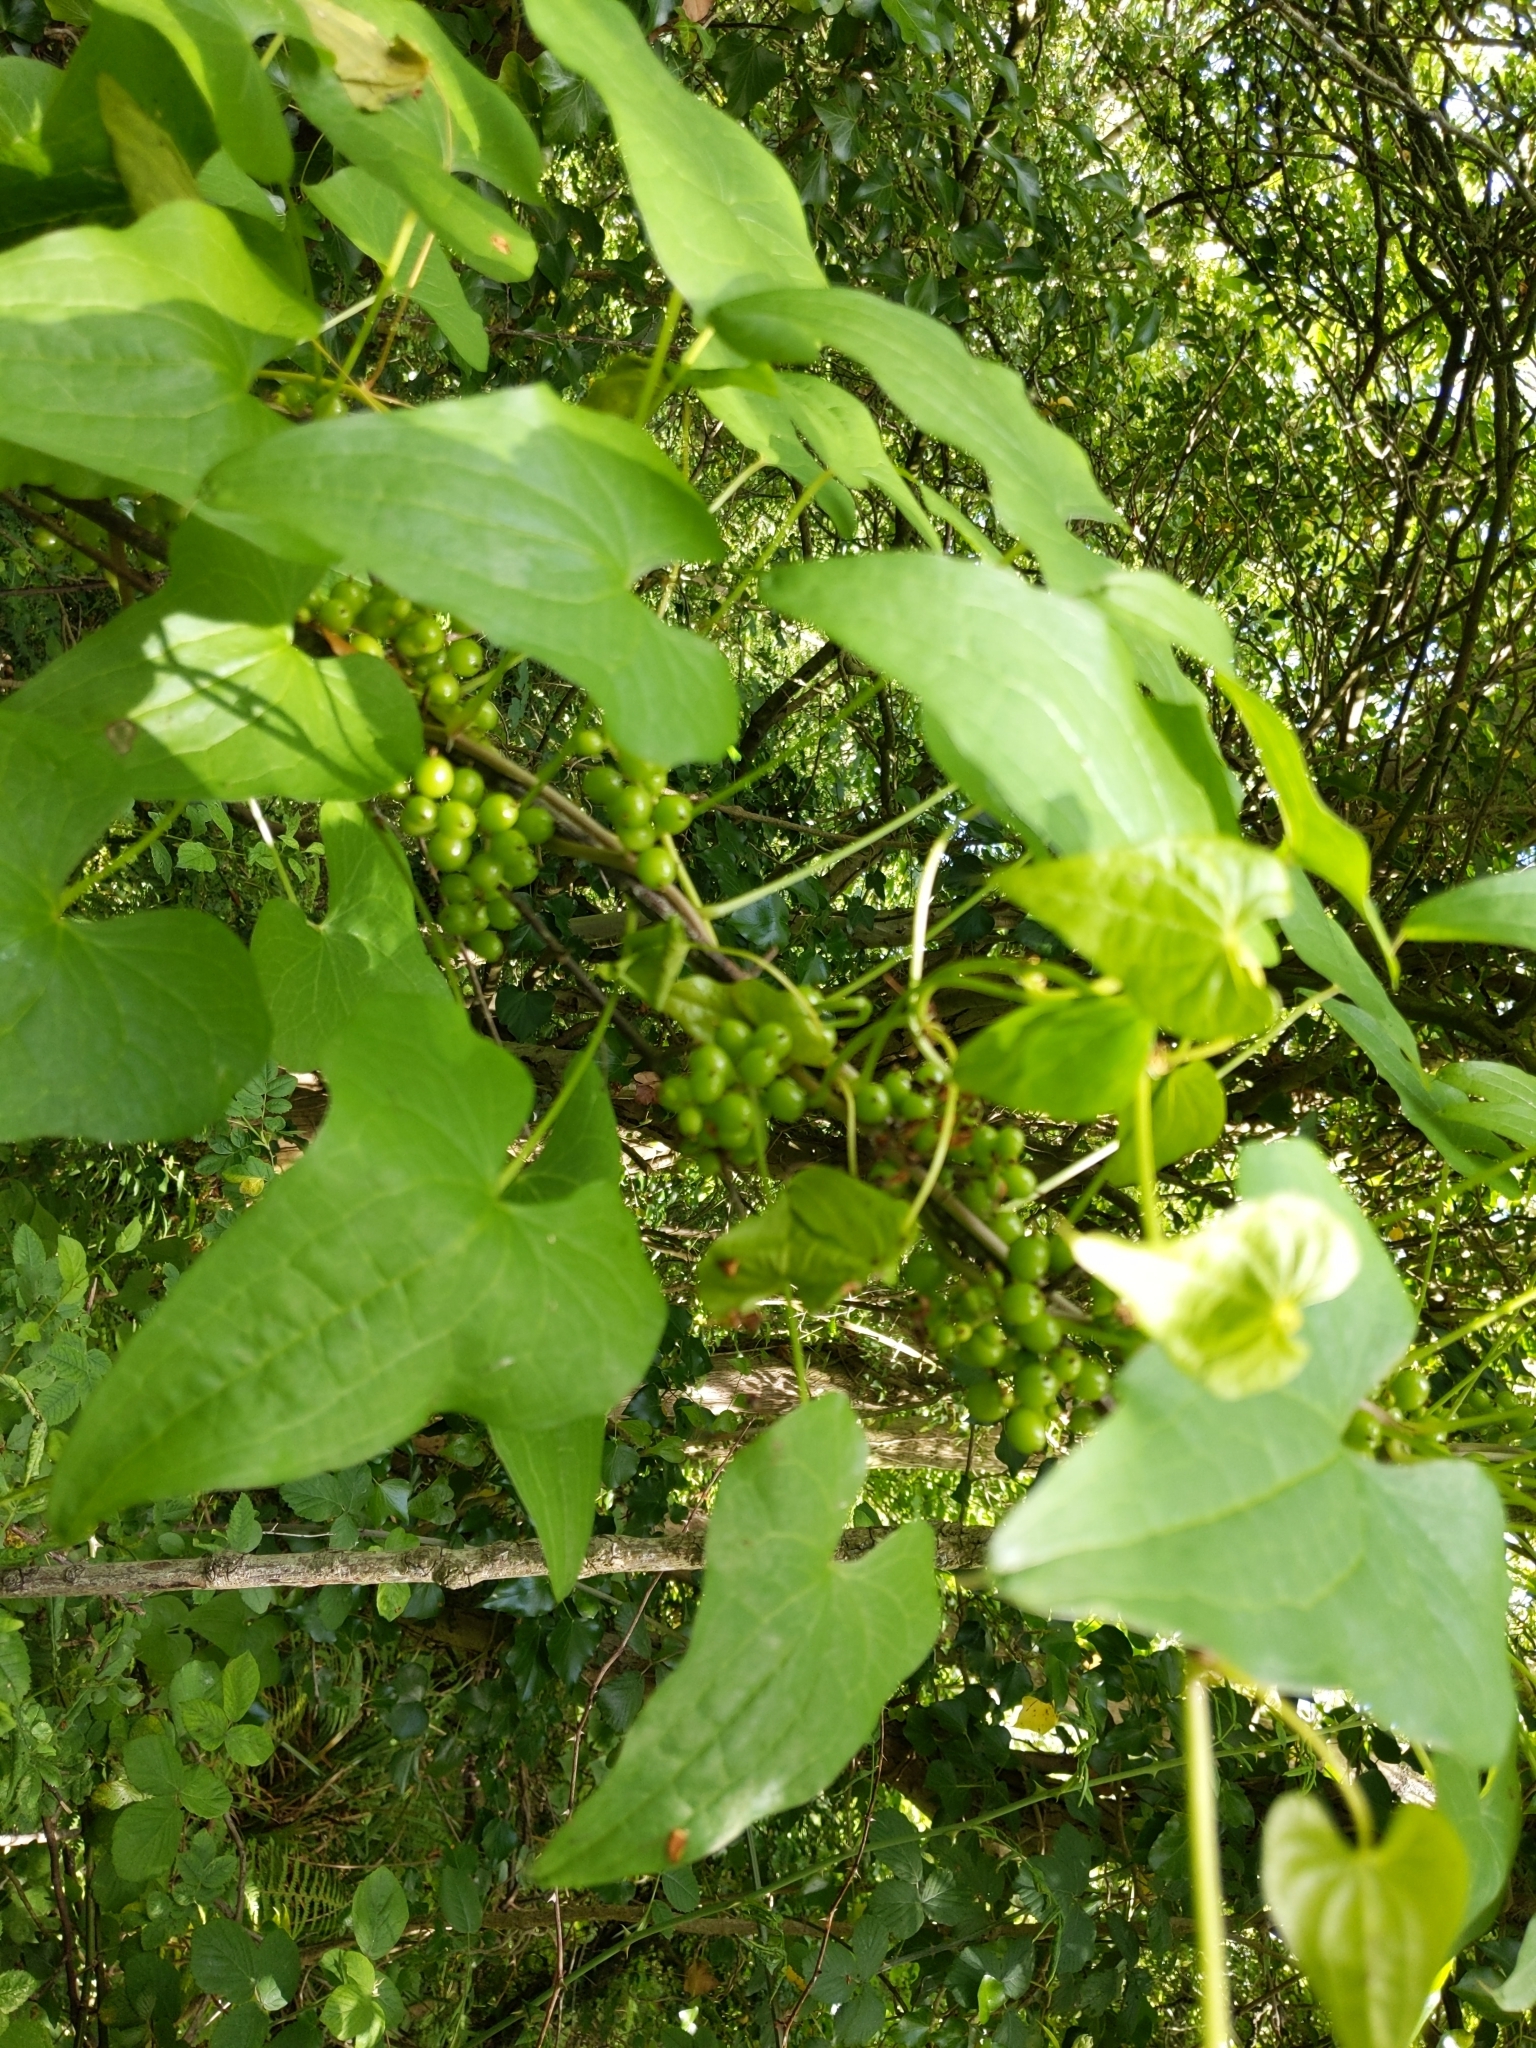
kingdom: Plantae
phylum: Tracheophyta
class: Liliopsida
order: Dioscoreales
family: Dioscoreaceae
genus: Dioscorea
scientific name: Dioscorea communis
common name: Black-bindweed
